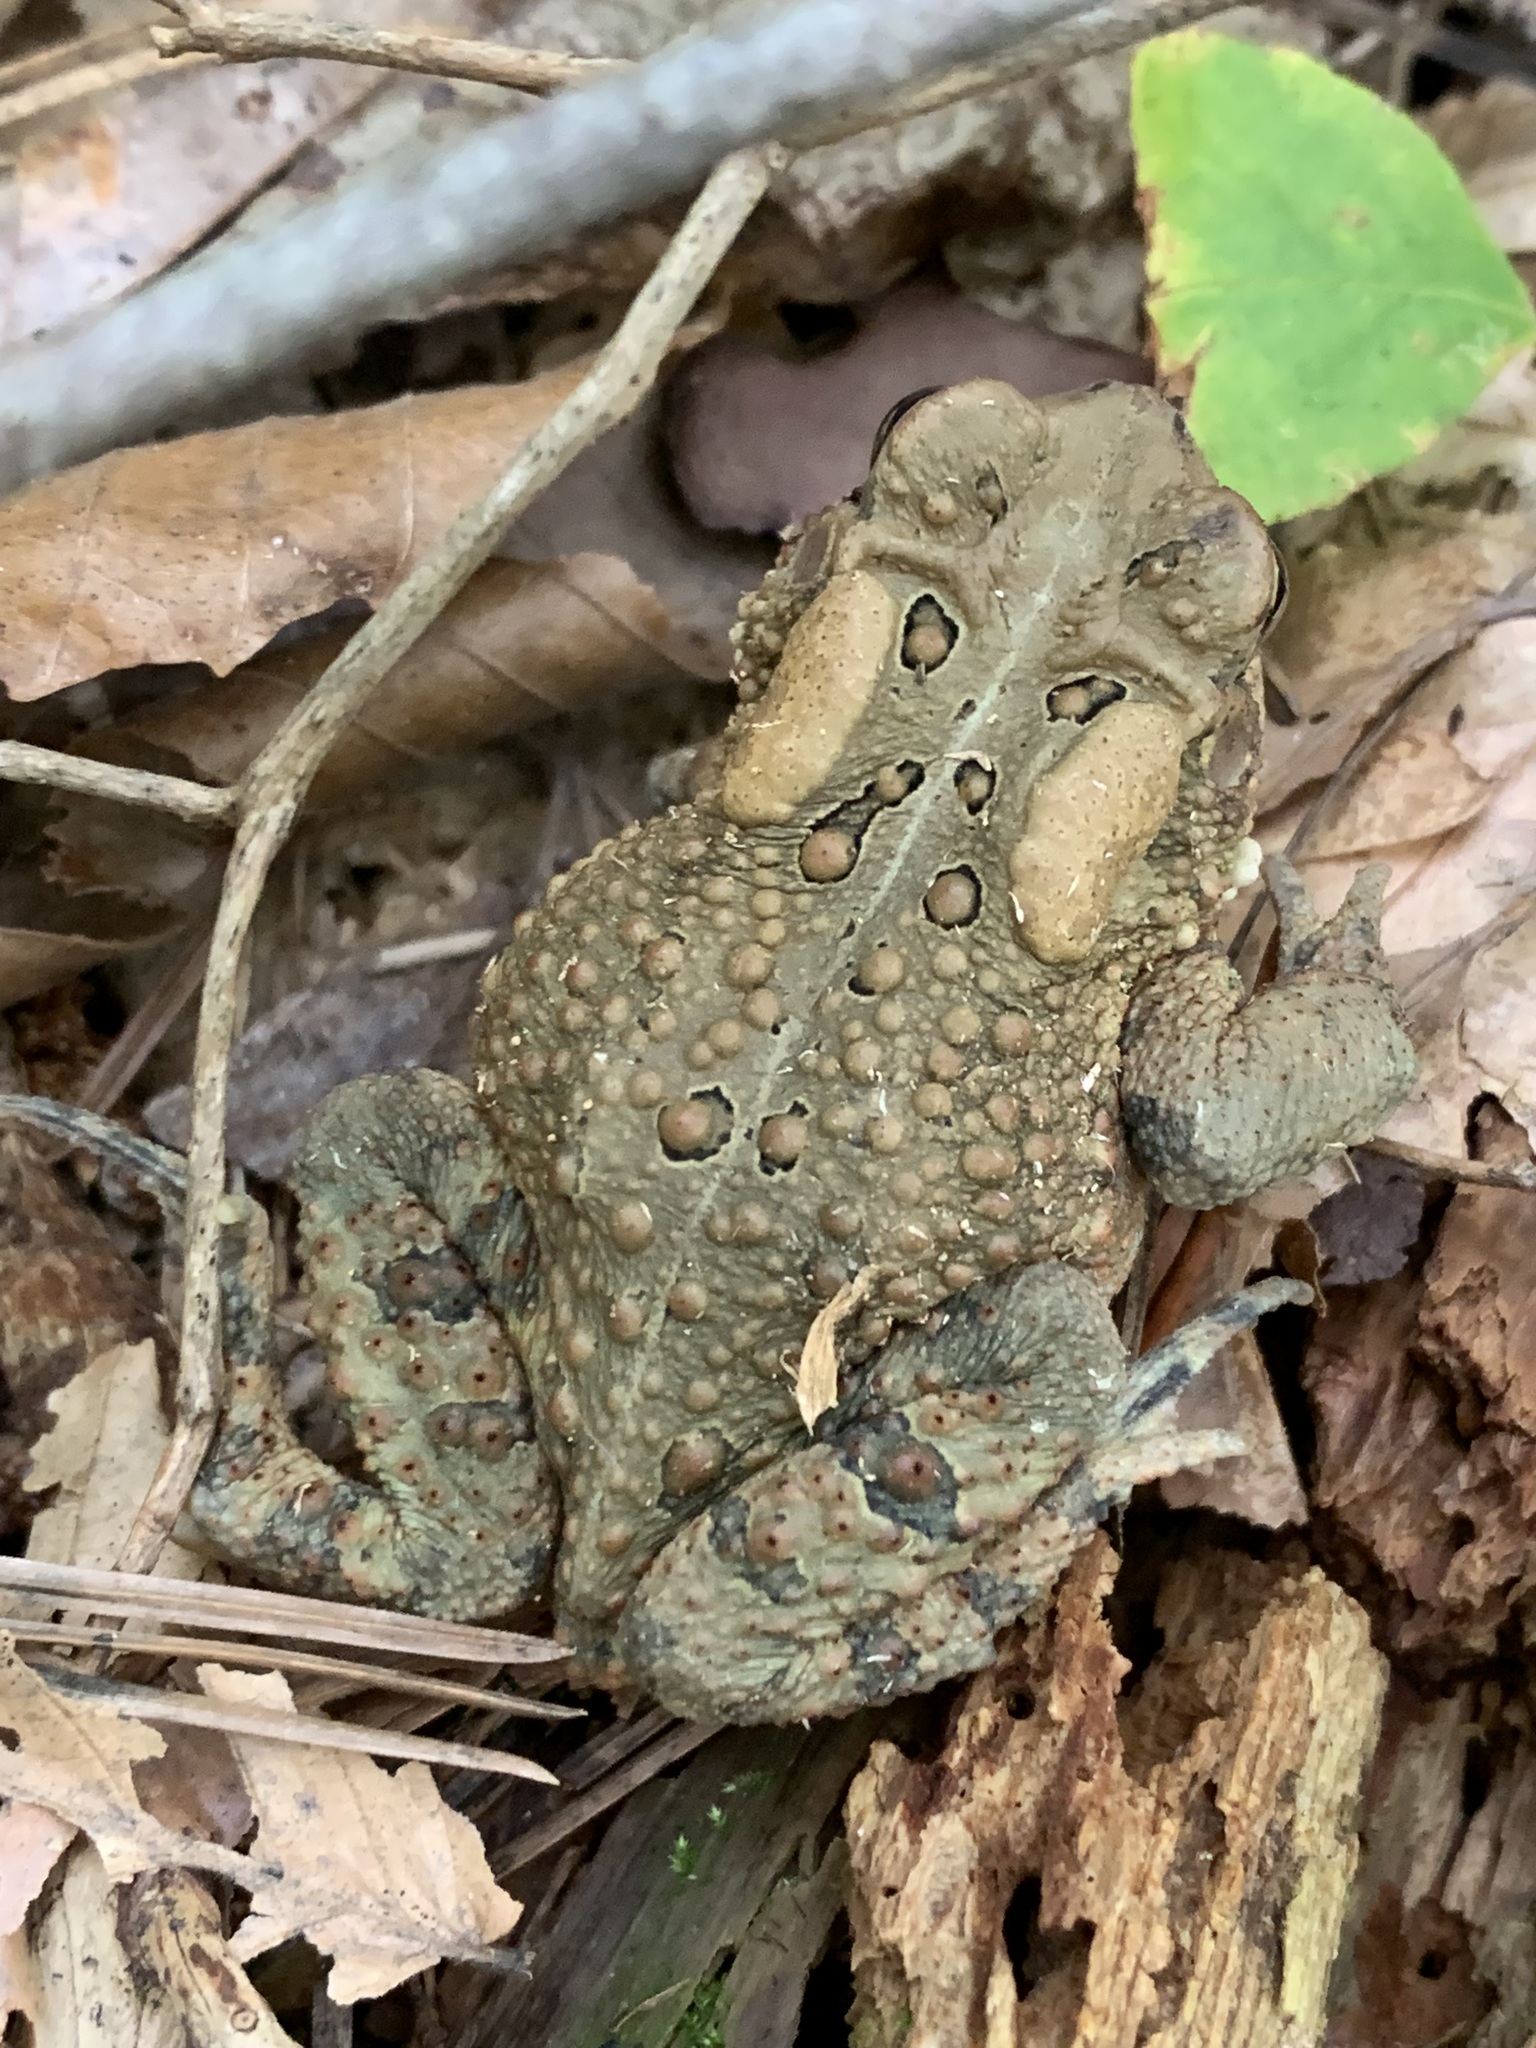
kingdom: Animalia
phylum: Chordata
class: Amphibia
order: Anura
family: Bufonidae
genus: Anaxyrus
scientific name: Anaxyrus americanus
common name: American toad
